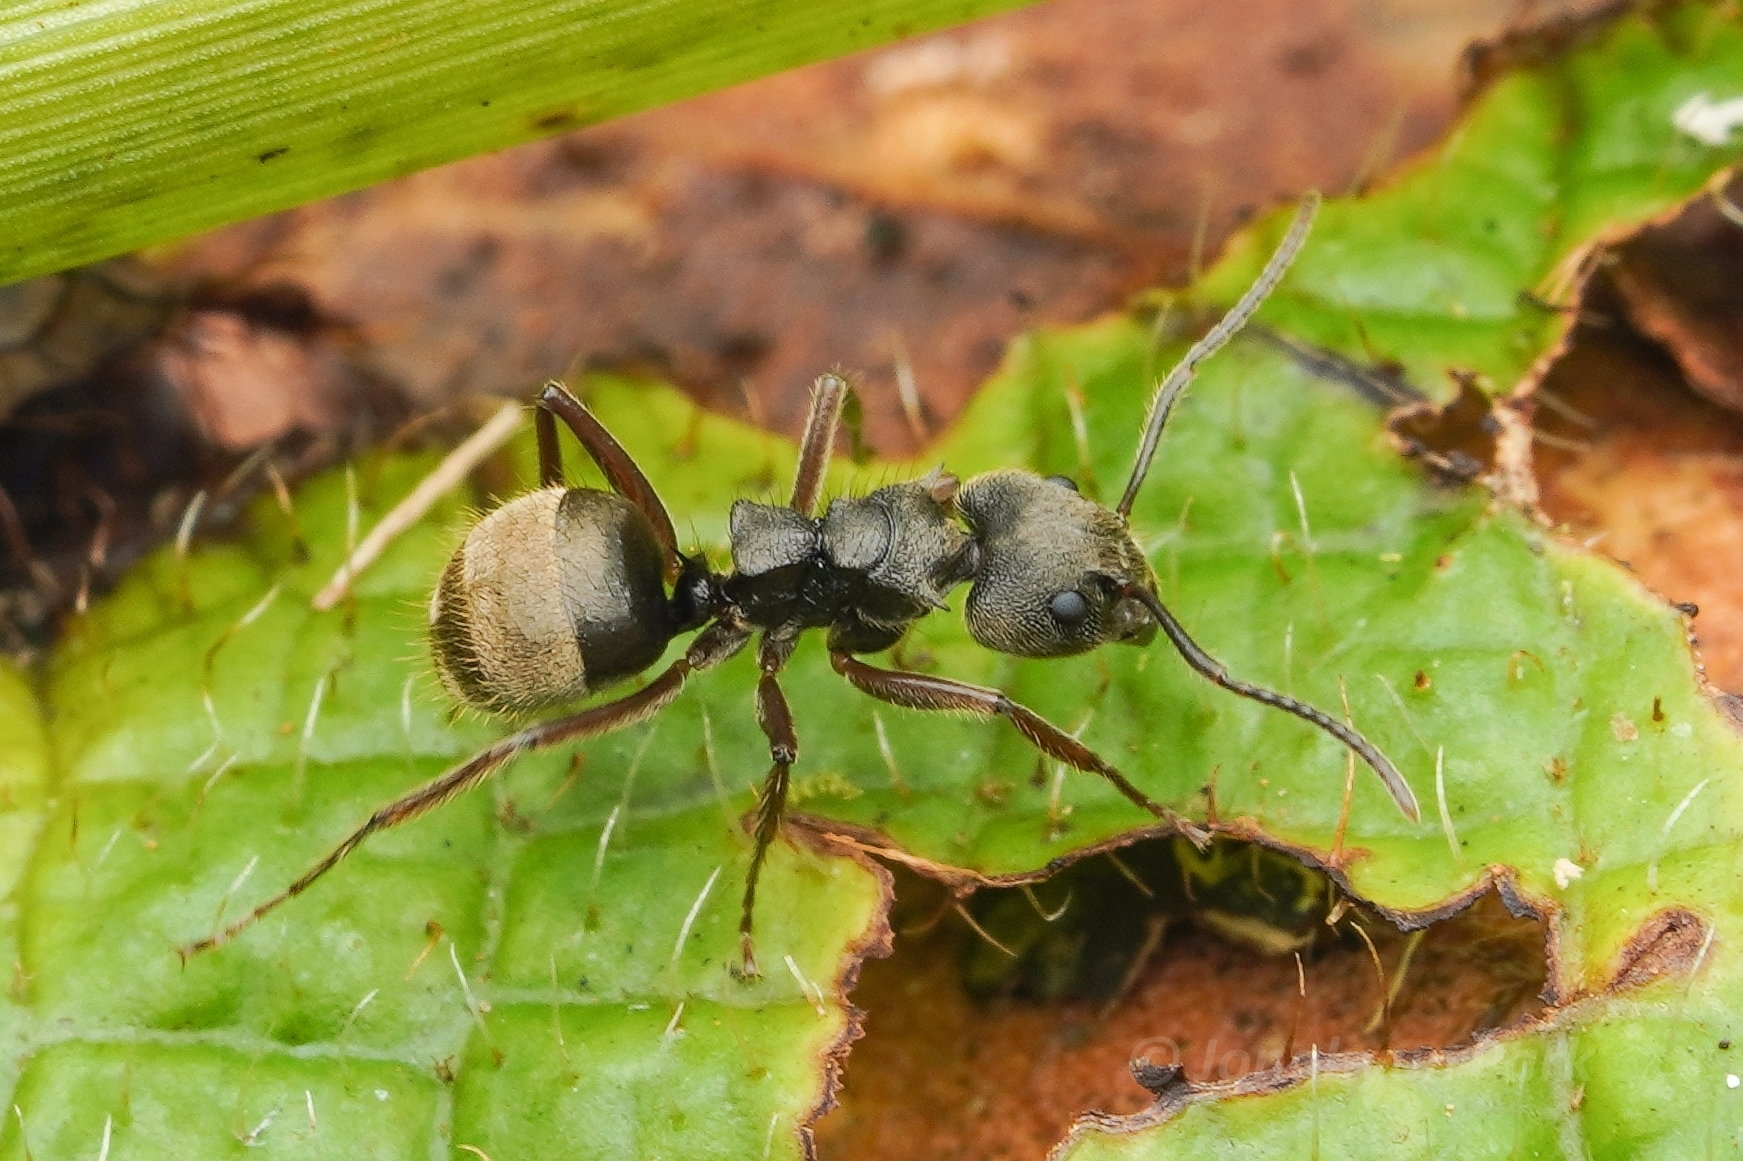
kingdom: Animalia
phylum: Arthropoda
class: Insecta
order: Hymenoptera
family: Formicidae
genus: Dolichoderus
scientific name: Dolichoderus bispinosus
